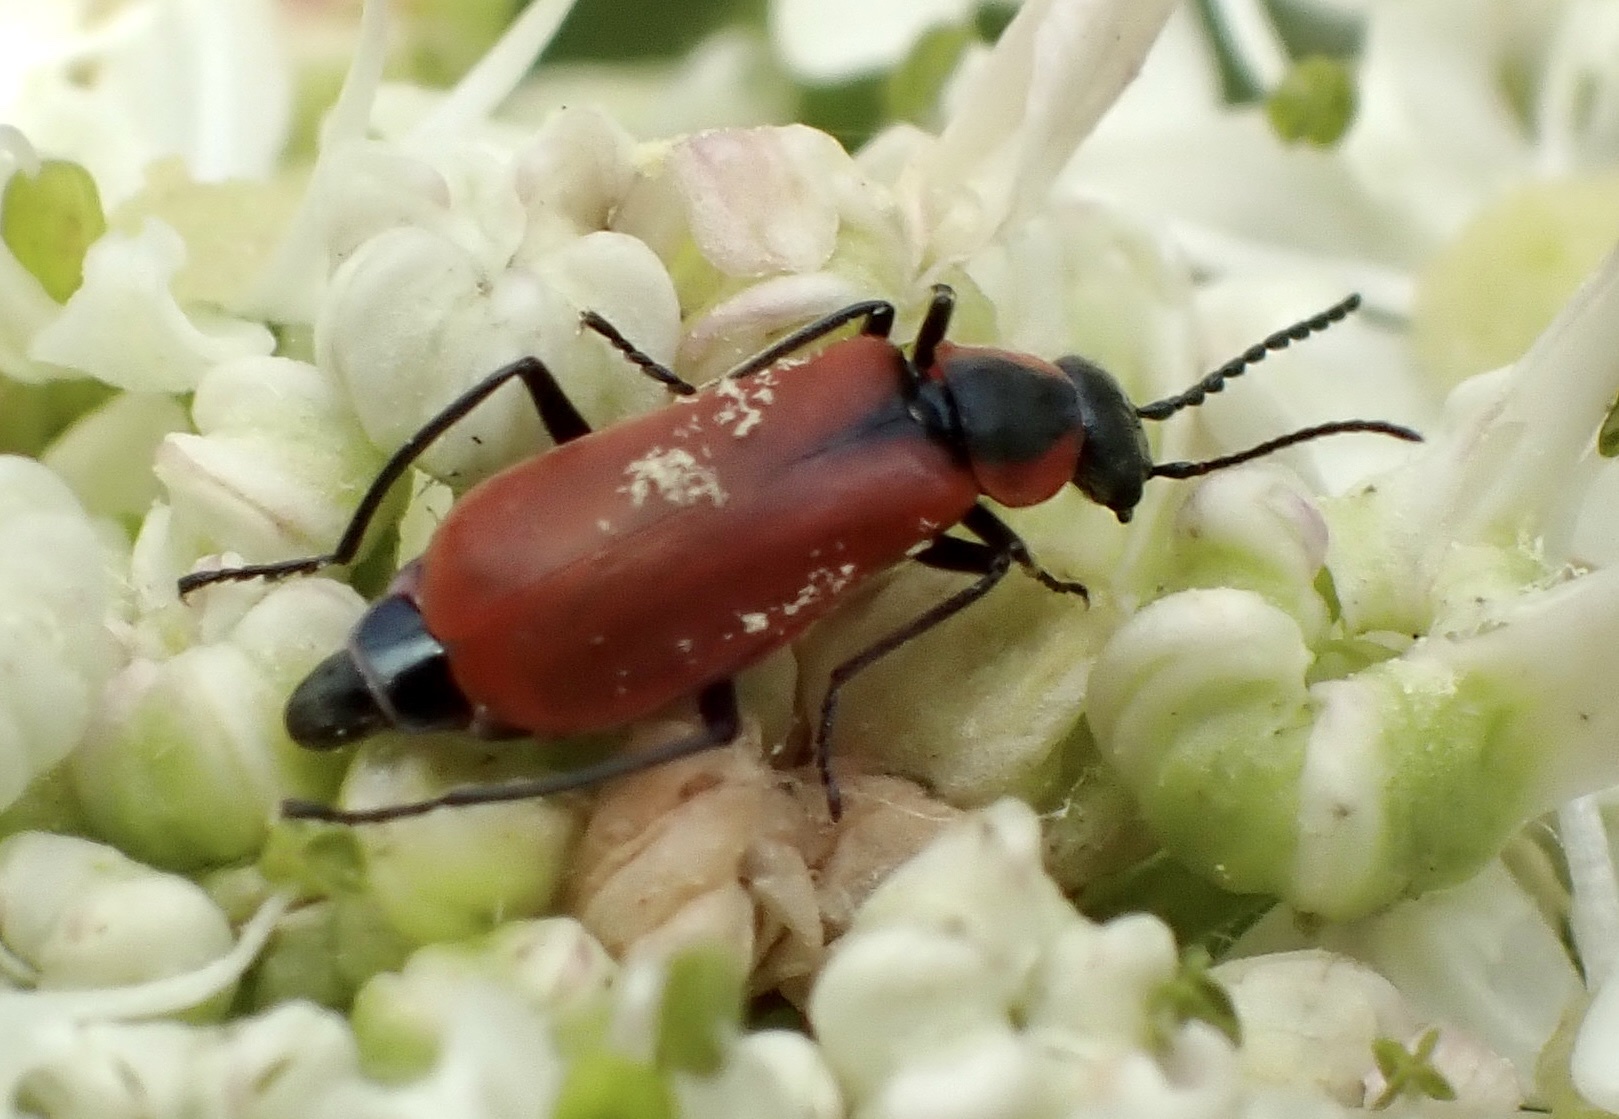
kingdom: Animalia
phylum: Arthropoda
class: Insecta
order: Coleoptera
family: Melyridae
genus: Anthocomus
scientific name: Anthocomus rufus
